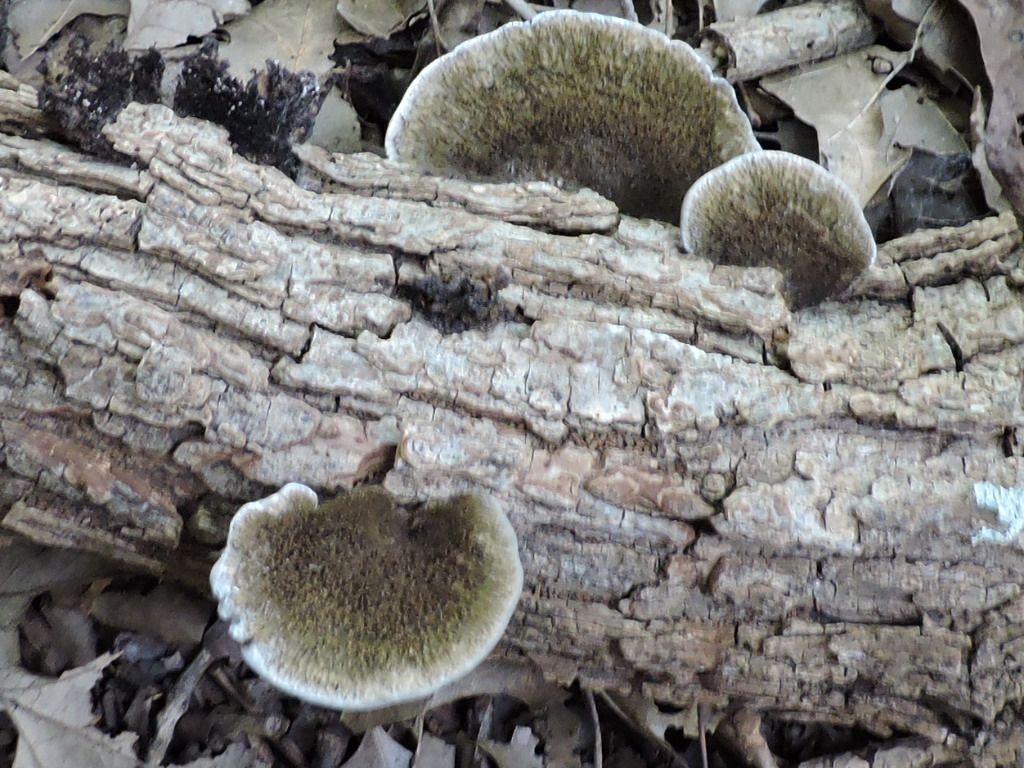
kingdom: Fungi
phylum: Basidiomycota
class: Agaricomycetes
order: Polyporales
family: Cerrenaceae
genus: Cerrena
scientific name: Cerrena hydnoides
